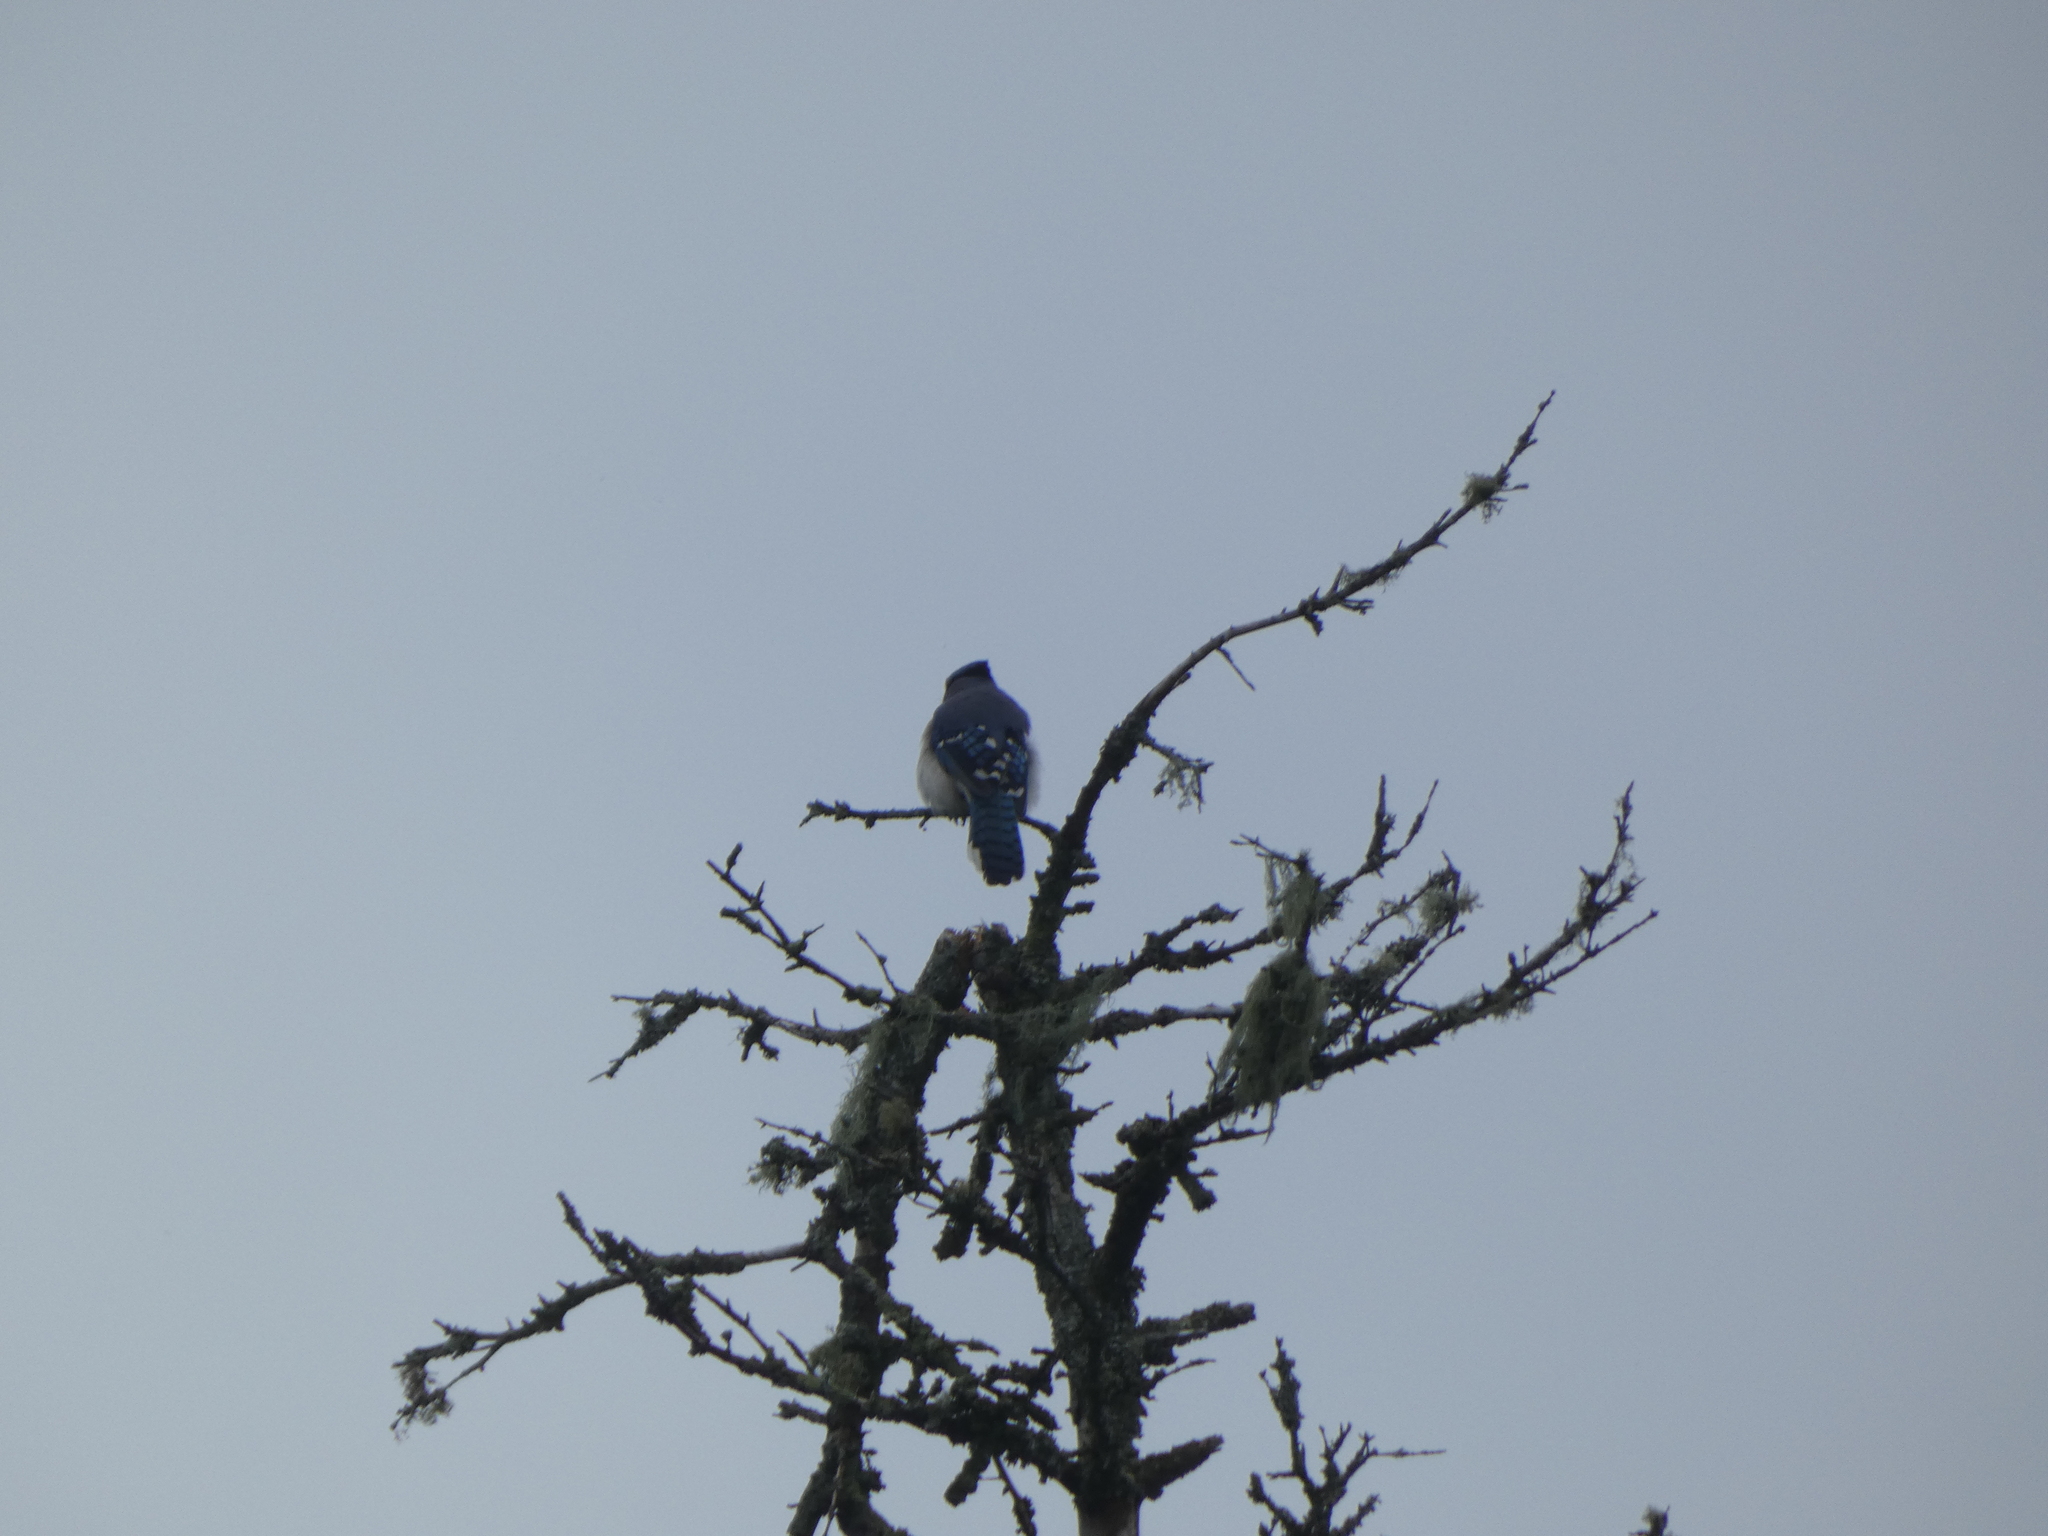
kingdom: Animalia
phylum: Chordata
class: Aves
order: Passeriformes
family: Corvidae
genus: Cyanocitta
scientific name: Cyanocitta cristata
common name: Blue jay
